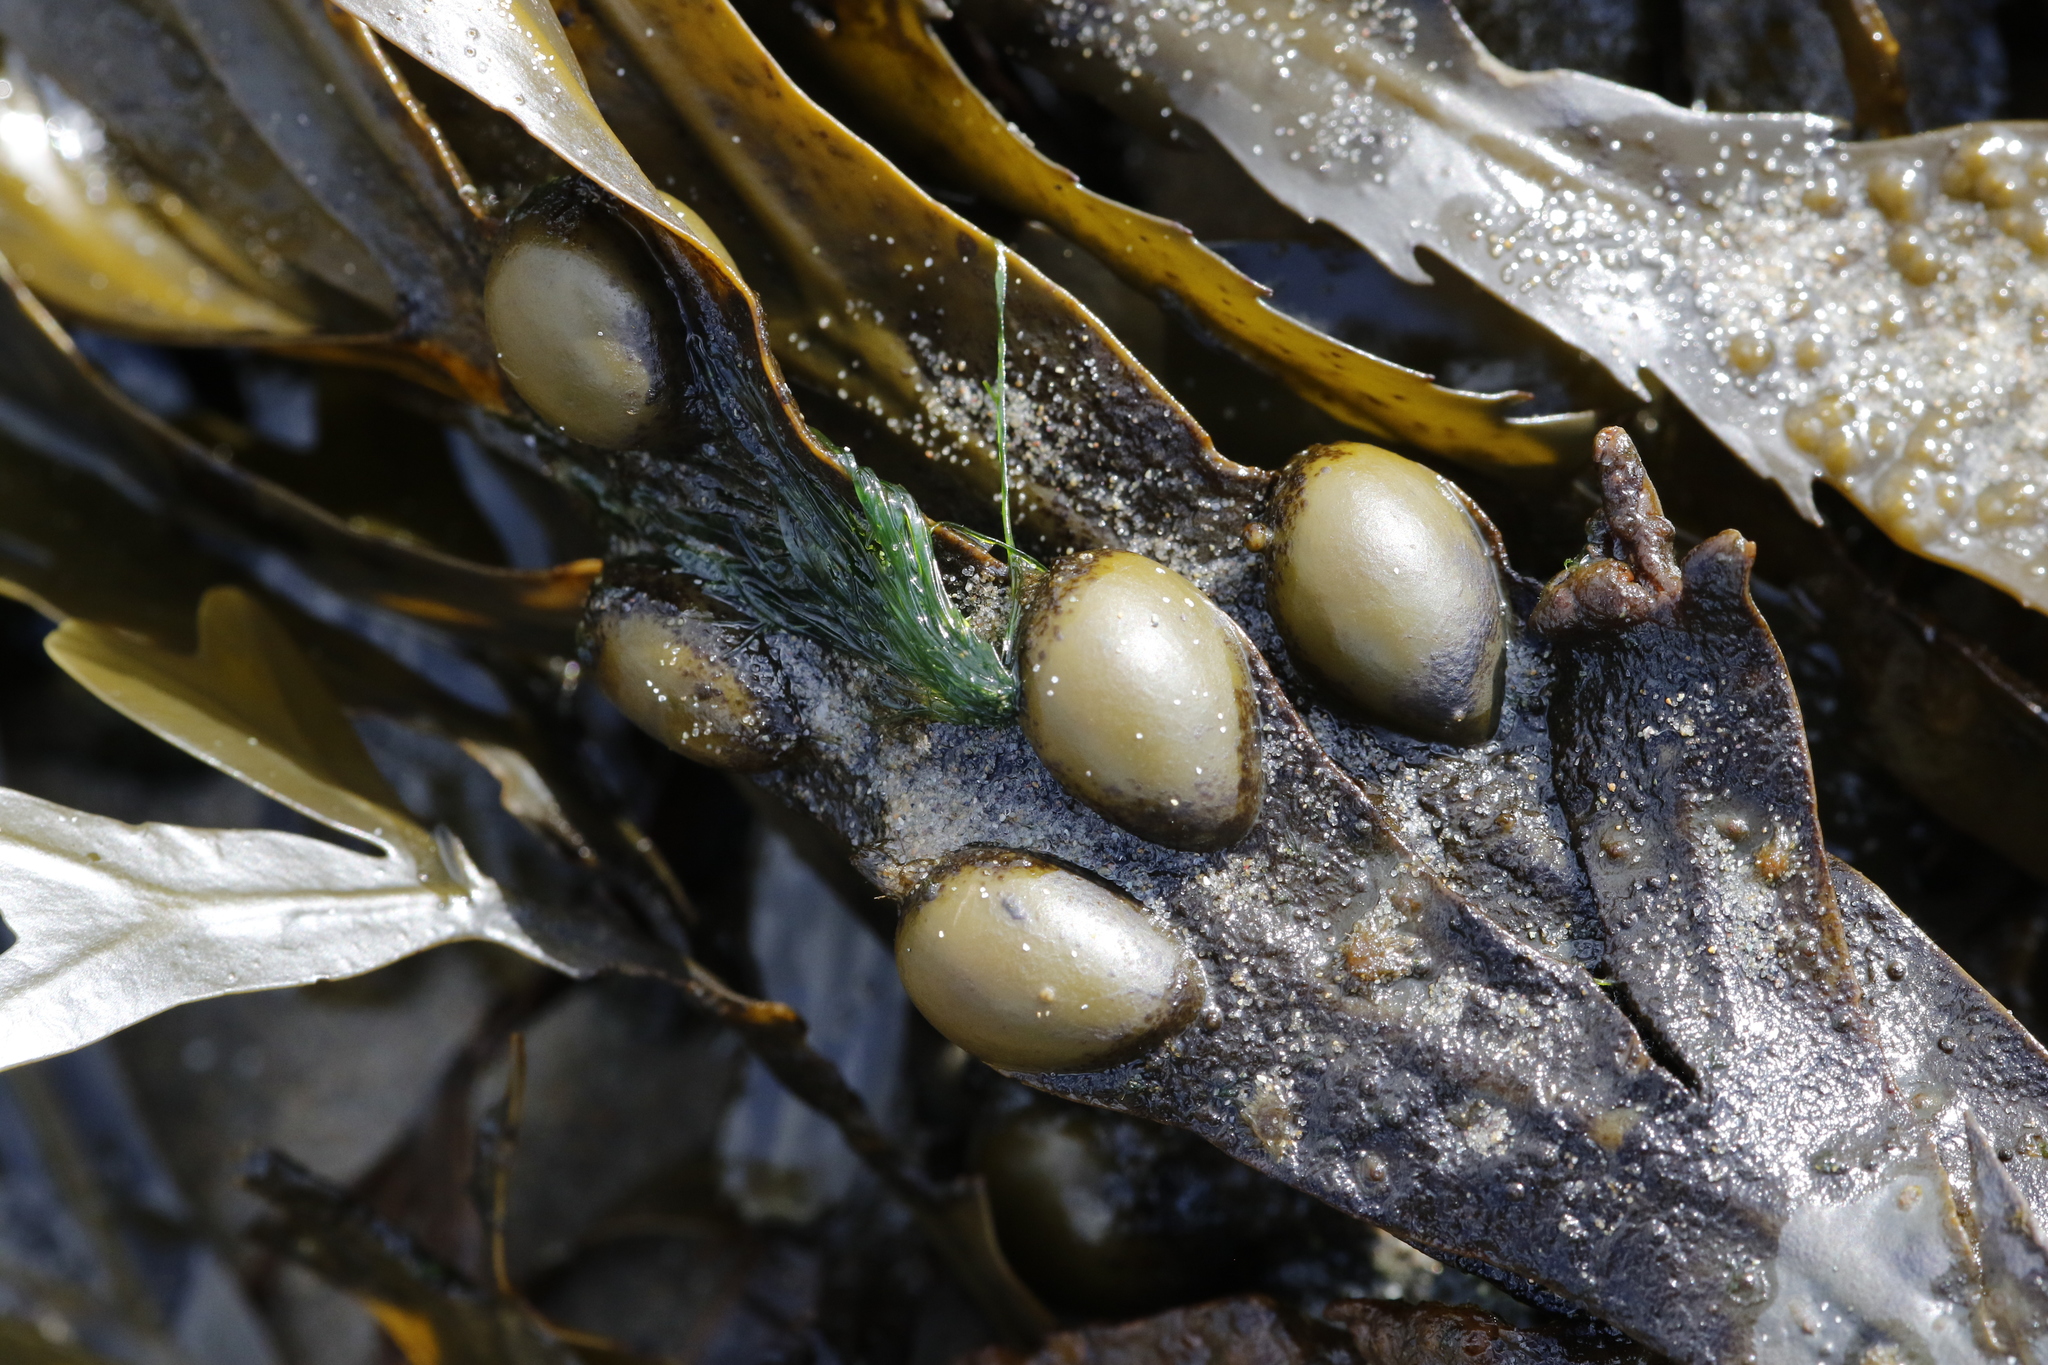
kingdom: Chromista
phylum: Ochrophyta
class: Phaeophyceae
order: Fucales
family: Fucaceae
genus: Fucus
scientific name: Fucus vesiculosus
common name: Bladder wrack
